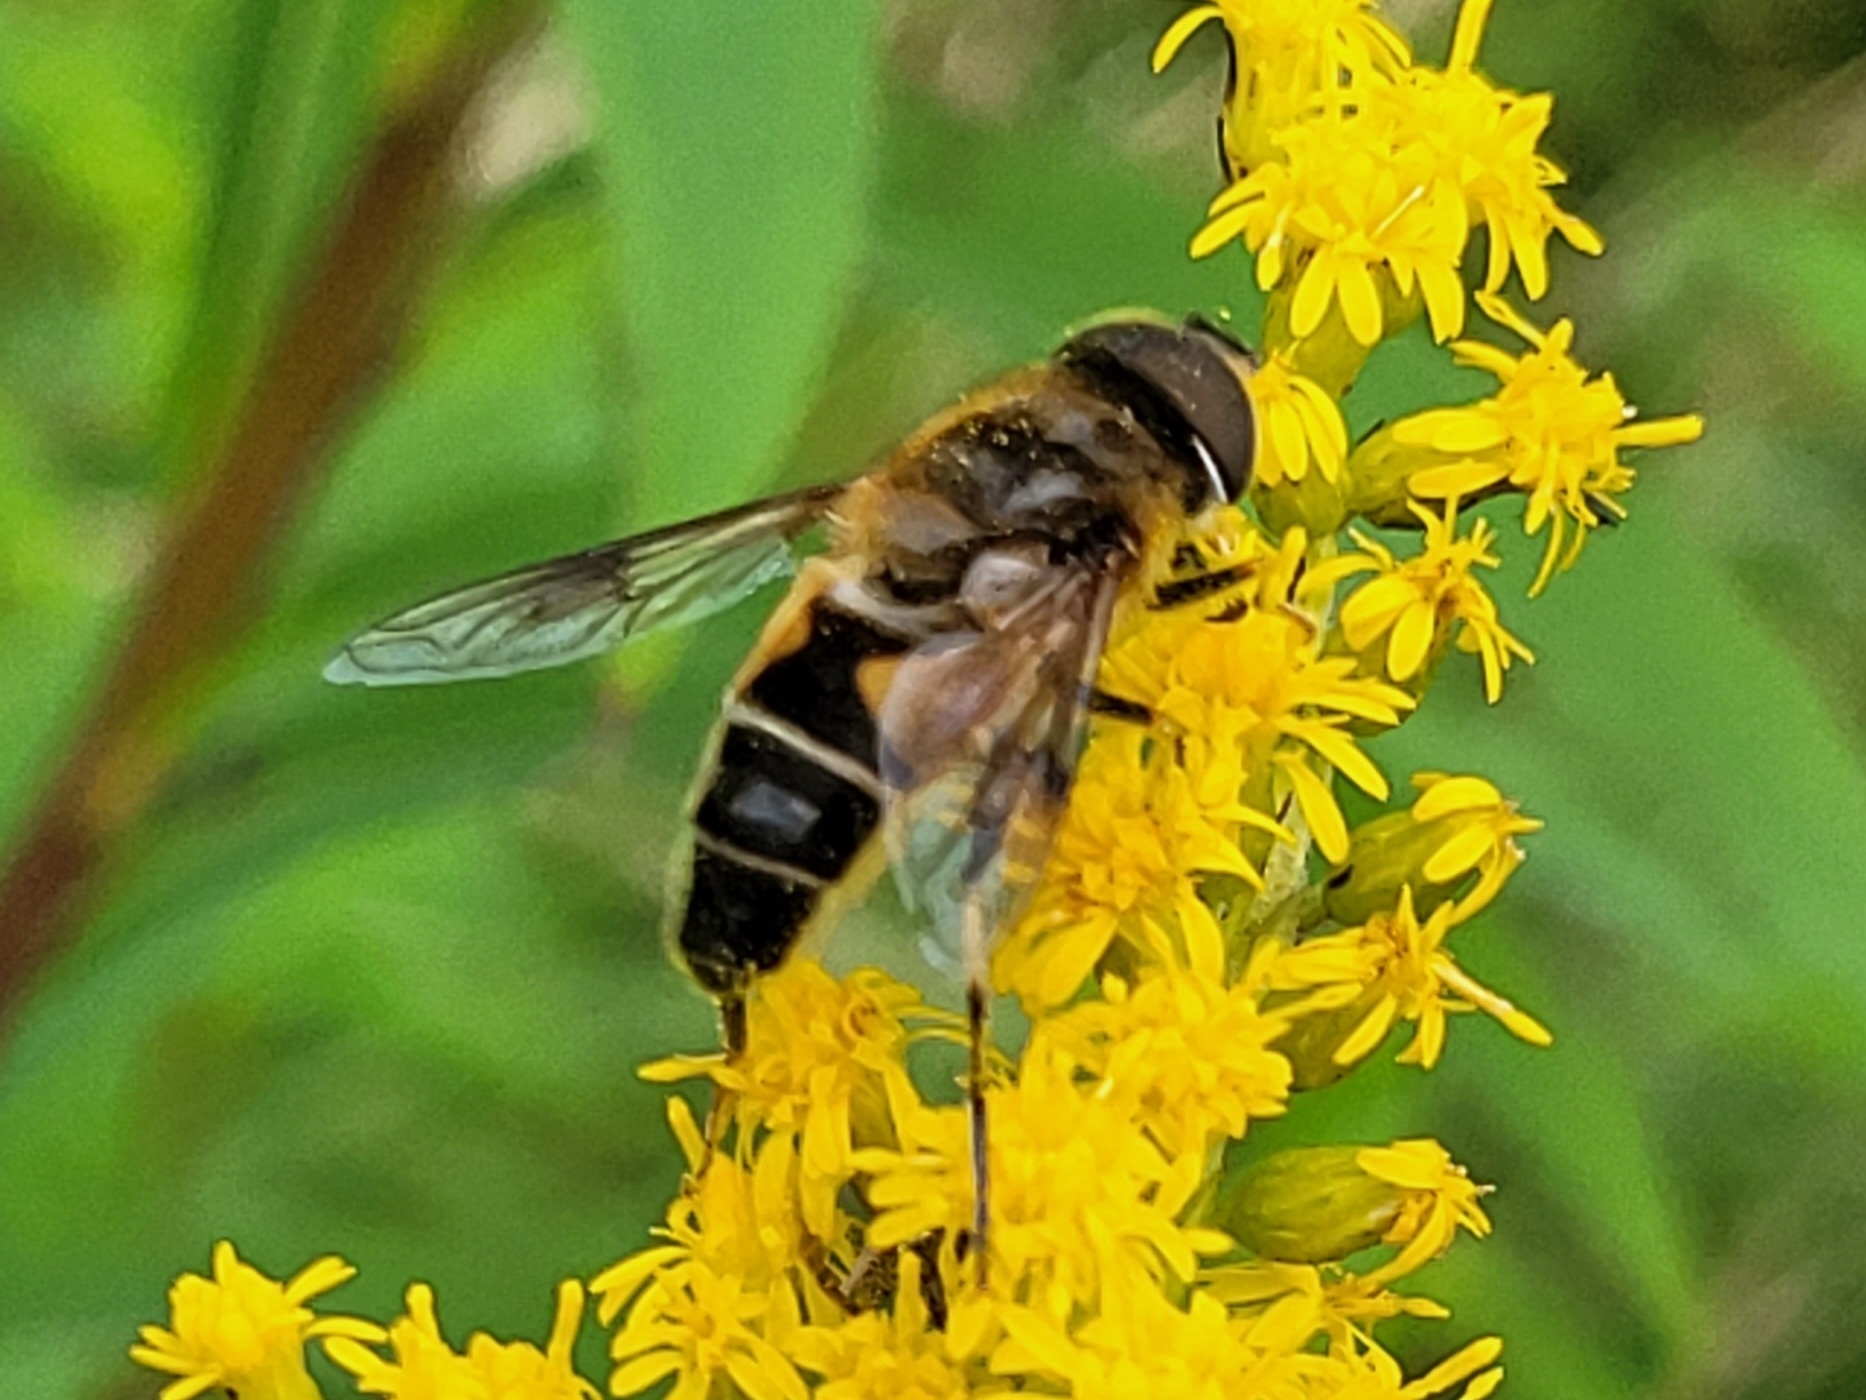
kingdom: Animalia
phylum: Arthropoda
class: Insecta
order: Diptera
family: Syrphidae
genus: Eristalis
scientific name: Eristalis pertinax
